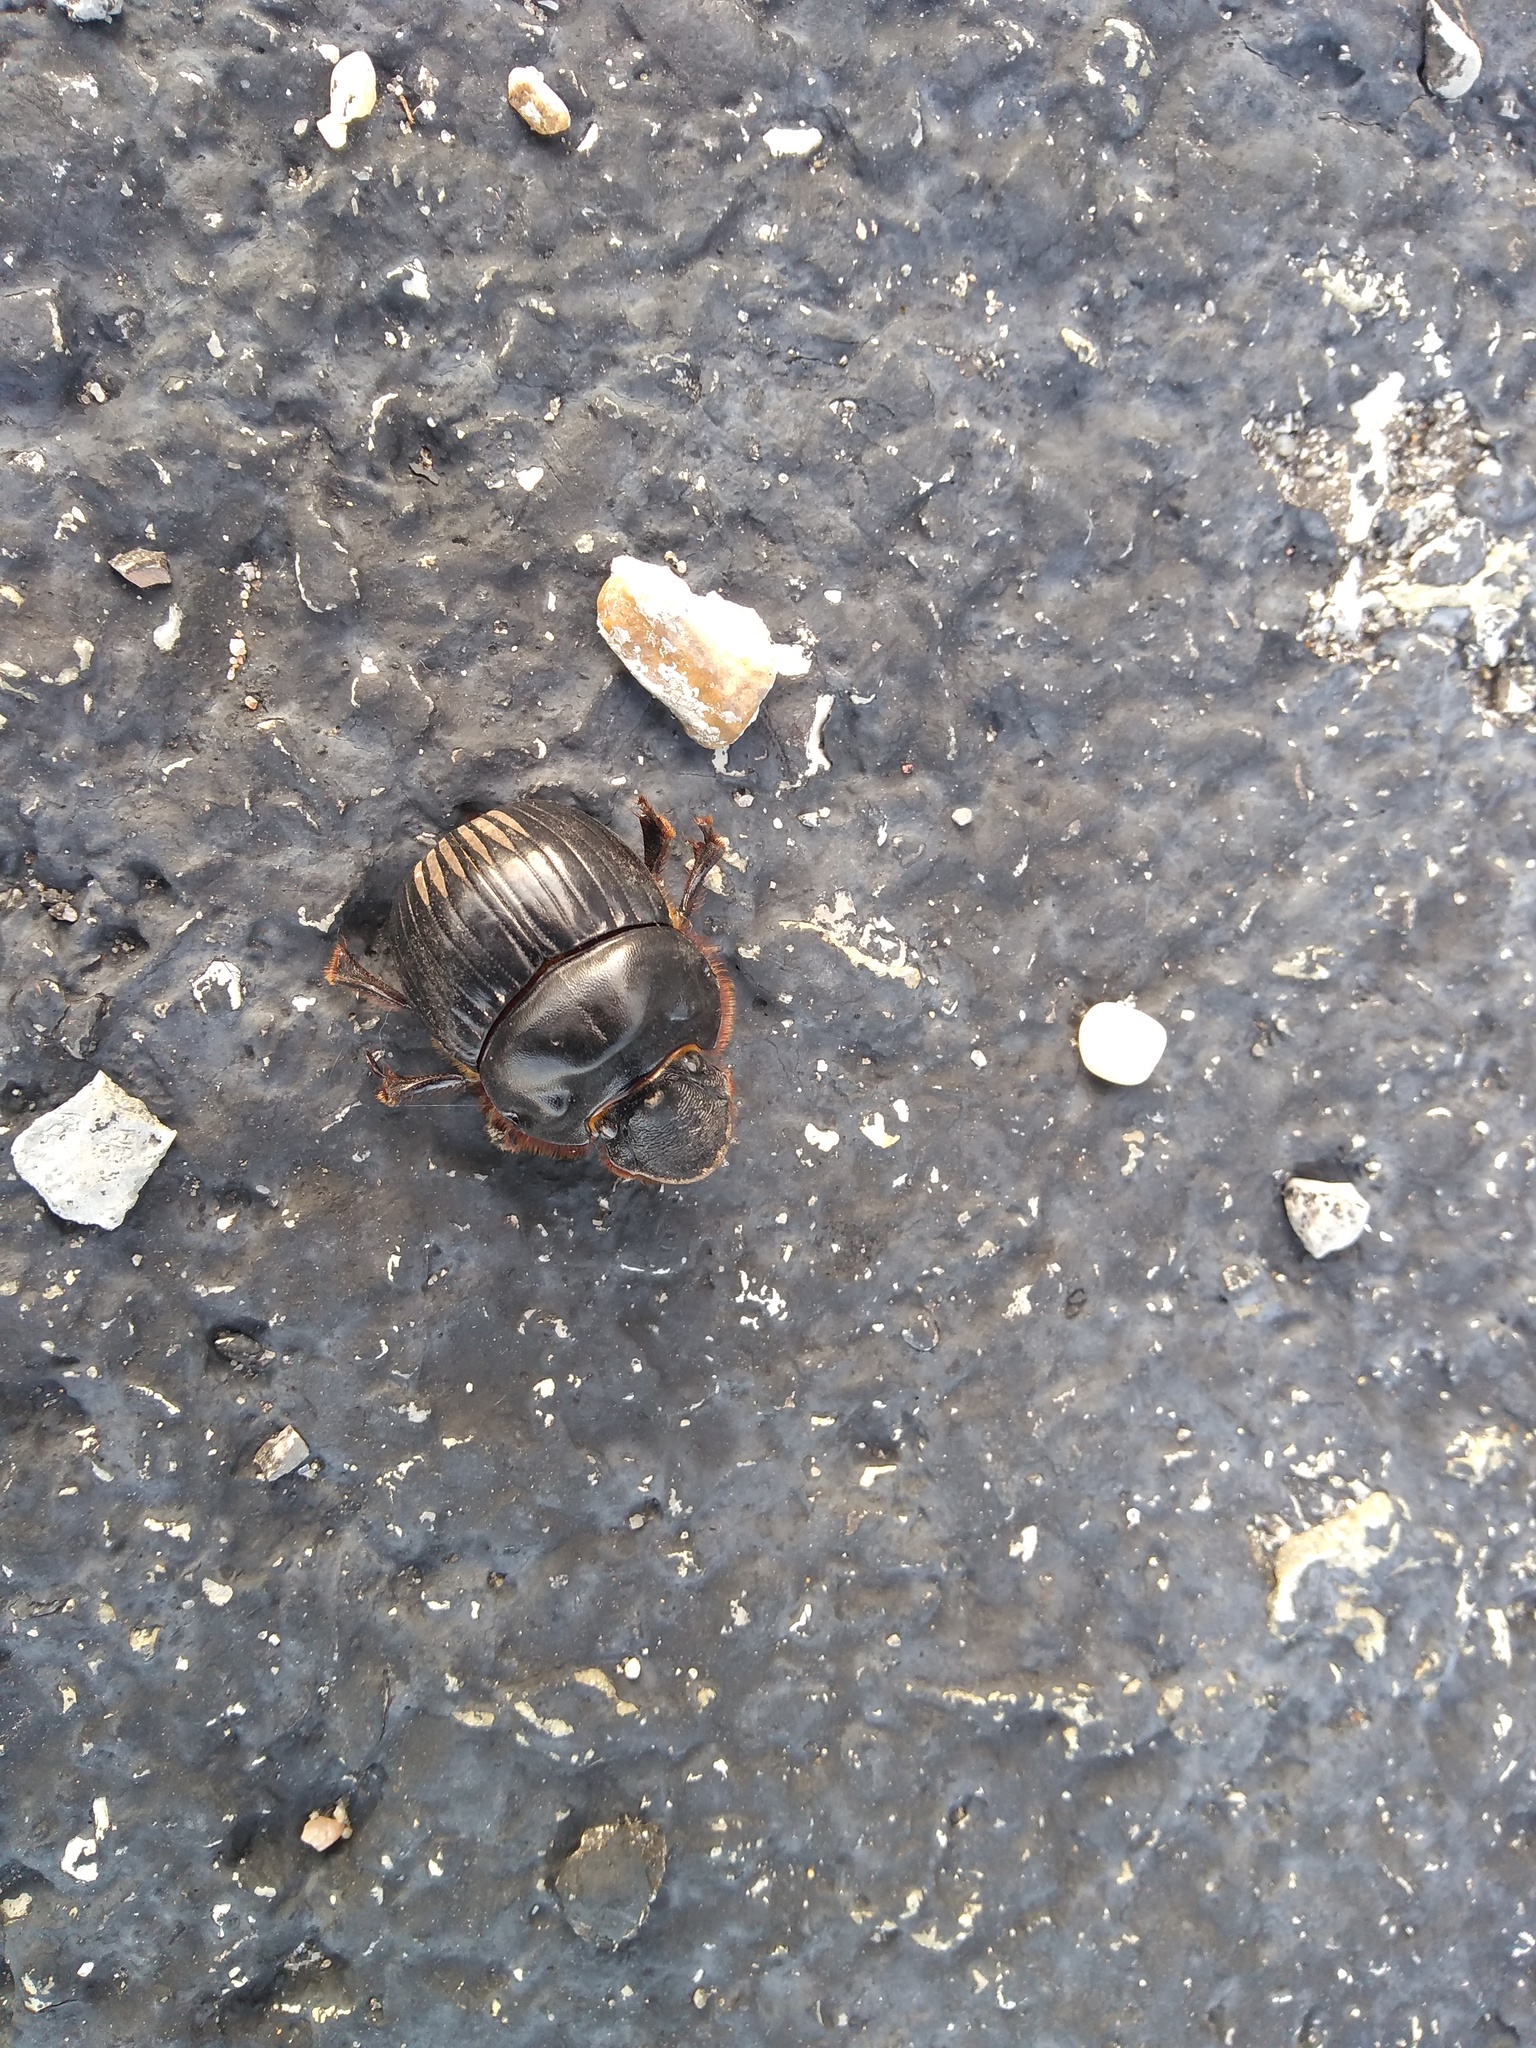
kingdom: Animalia
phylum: Arthropoda
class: Insecta
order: Coleoptera
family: Scarabaeidae
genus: Dichotomius
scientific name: Dichotomius carolinus
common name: Carolina copris
